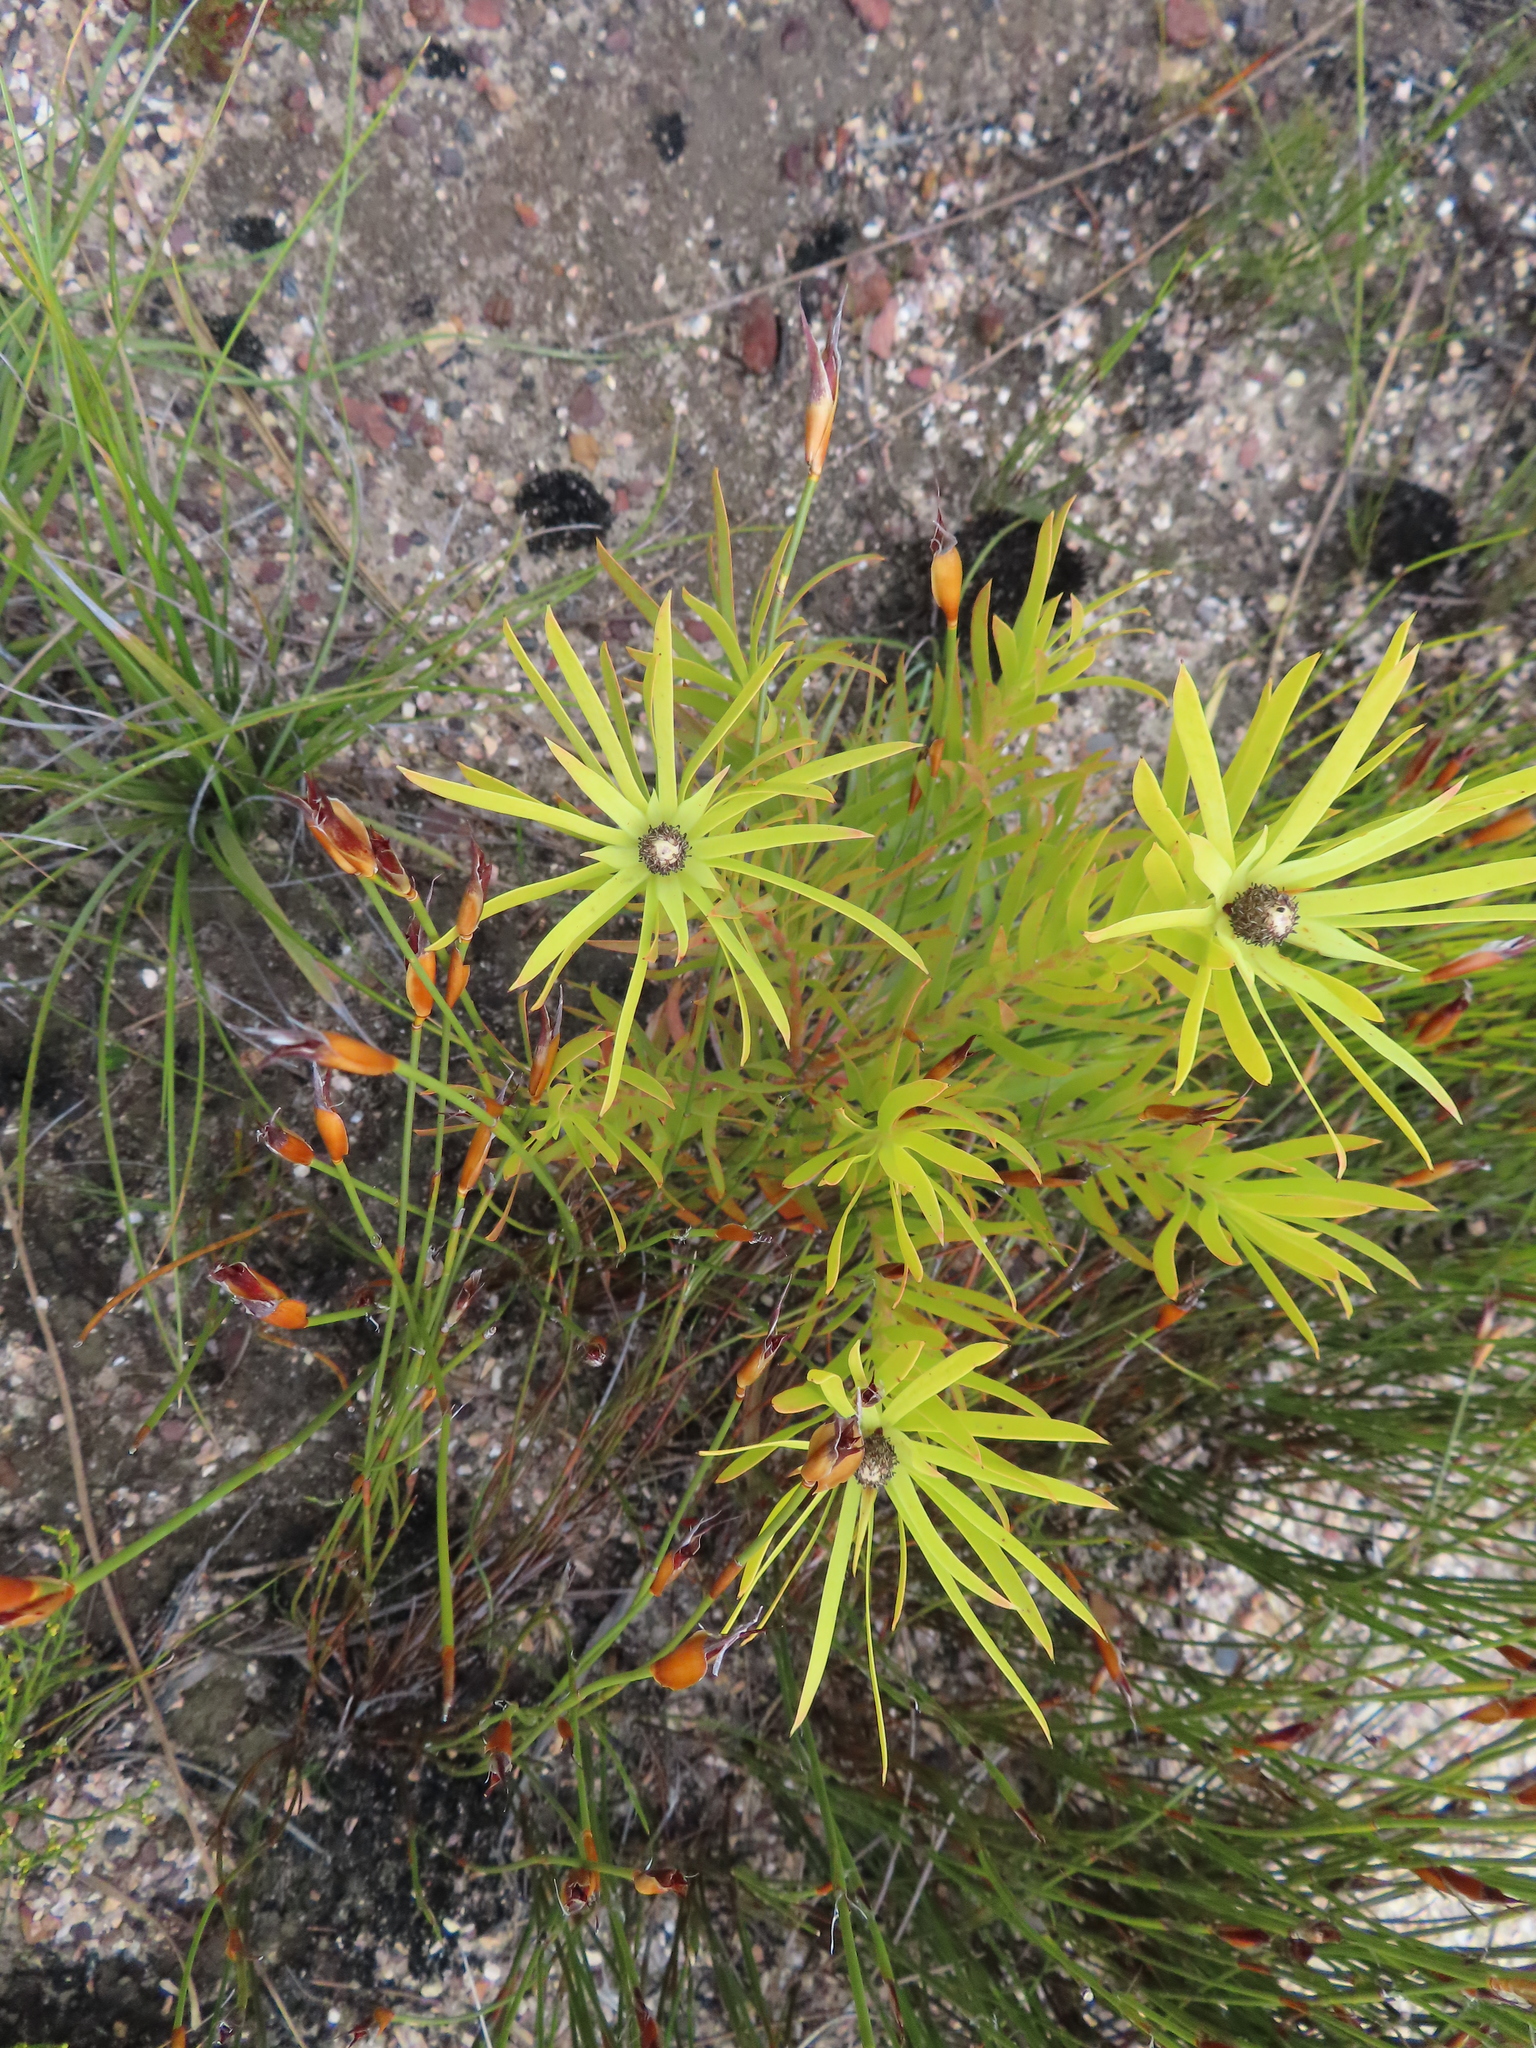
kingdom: Plantae
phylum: Tracheophyta
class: Magnoliopsida
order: Proteales
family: Proteaceae
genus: Leucadendron
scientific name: Leucadendron xanthoconus
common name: Sickle-leaf conebush
